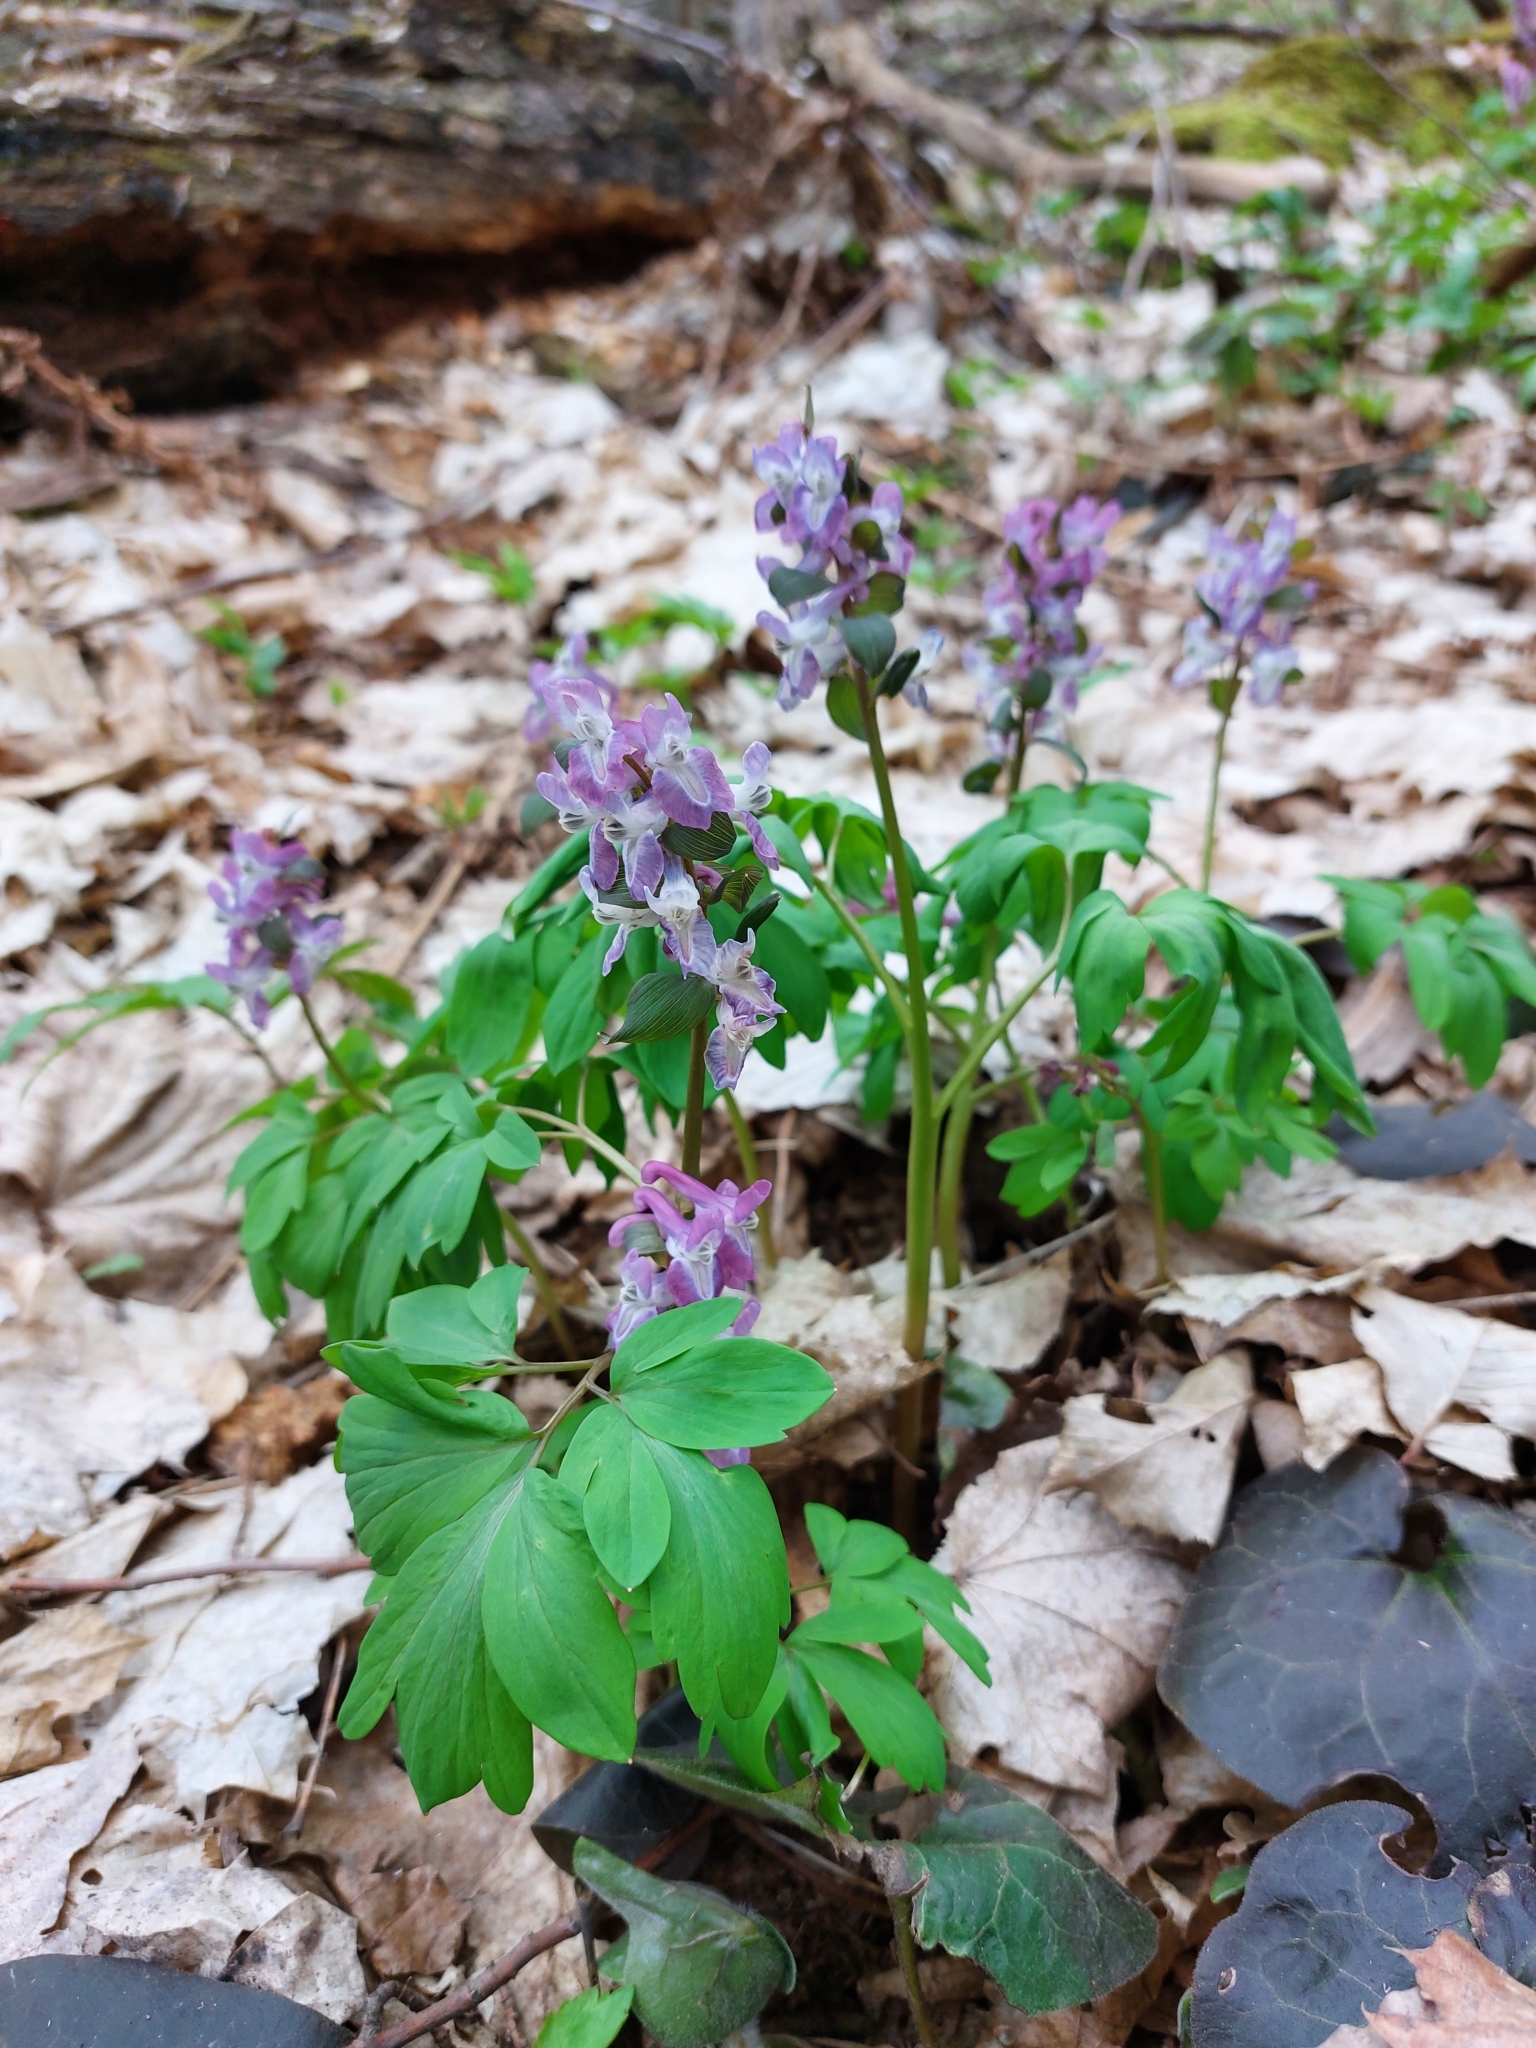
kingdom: Plantae
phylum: Tracheophyta
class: Magnoliopsida
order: Ranunculales
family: Papaveraceae
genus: Corydalis
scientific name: Corydalis cava
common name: Hollowroot
